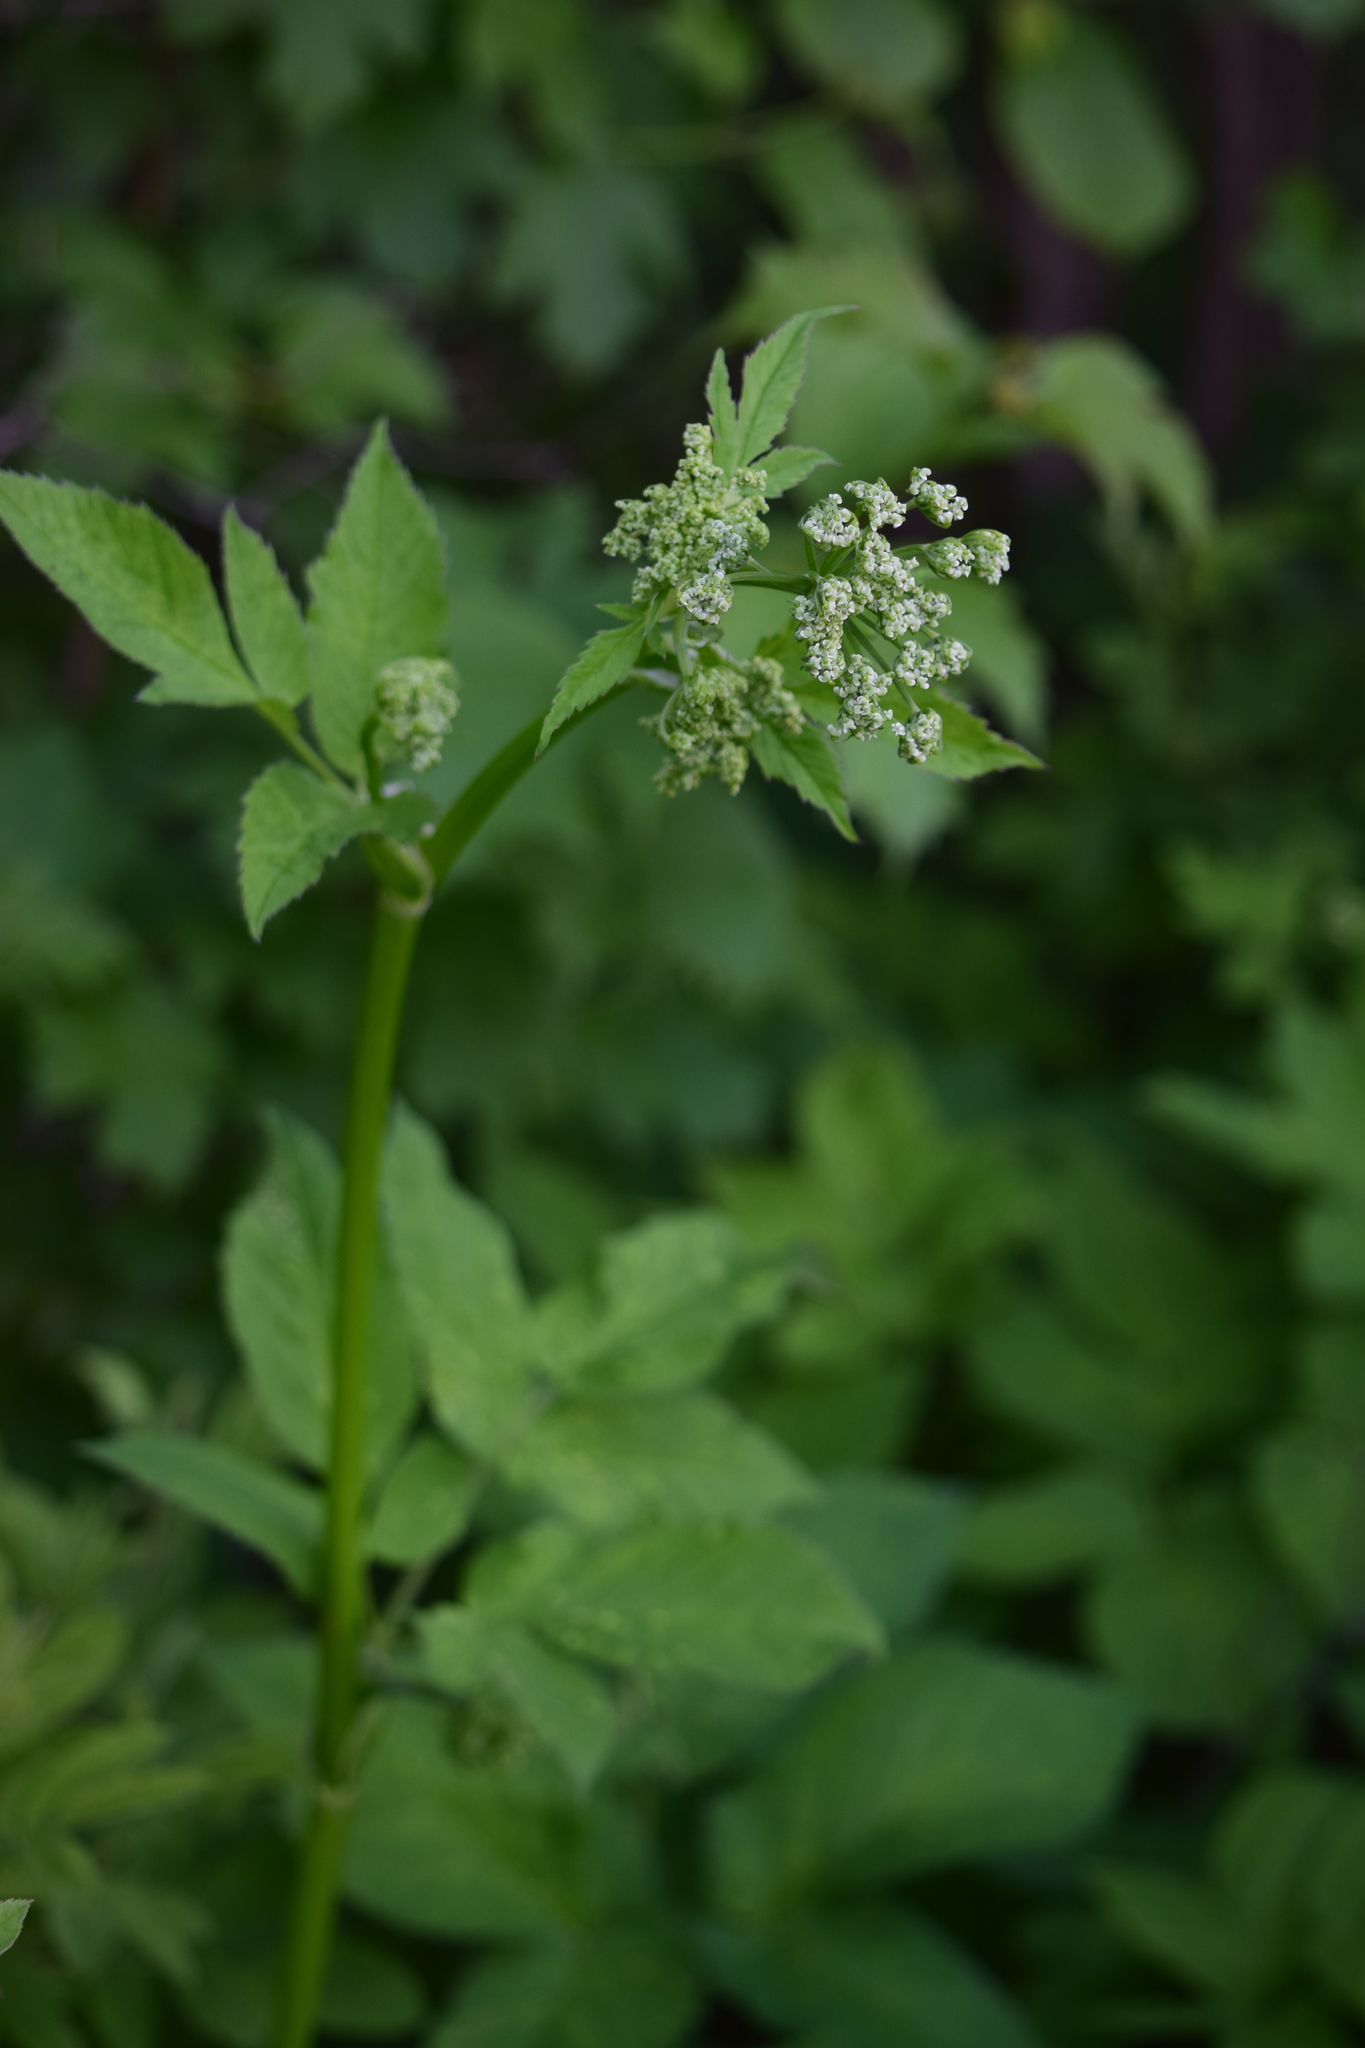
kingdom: Plantae
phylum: Tracheophyta
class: Magnoliopsida
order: Apiales
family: Apiaceae
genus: Aegopodium
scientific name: Aegopodium podagraria
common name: Ground-elder
